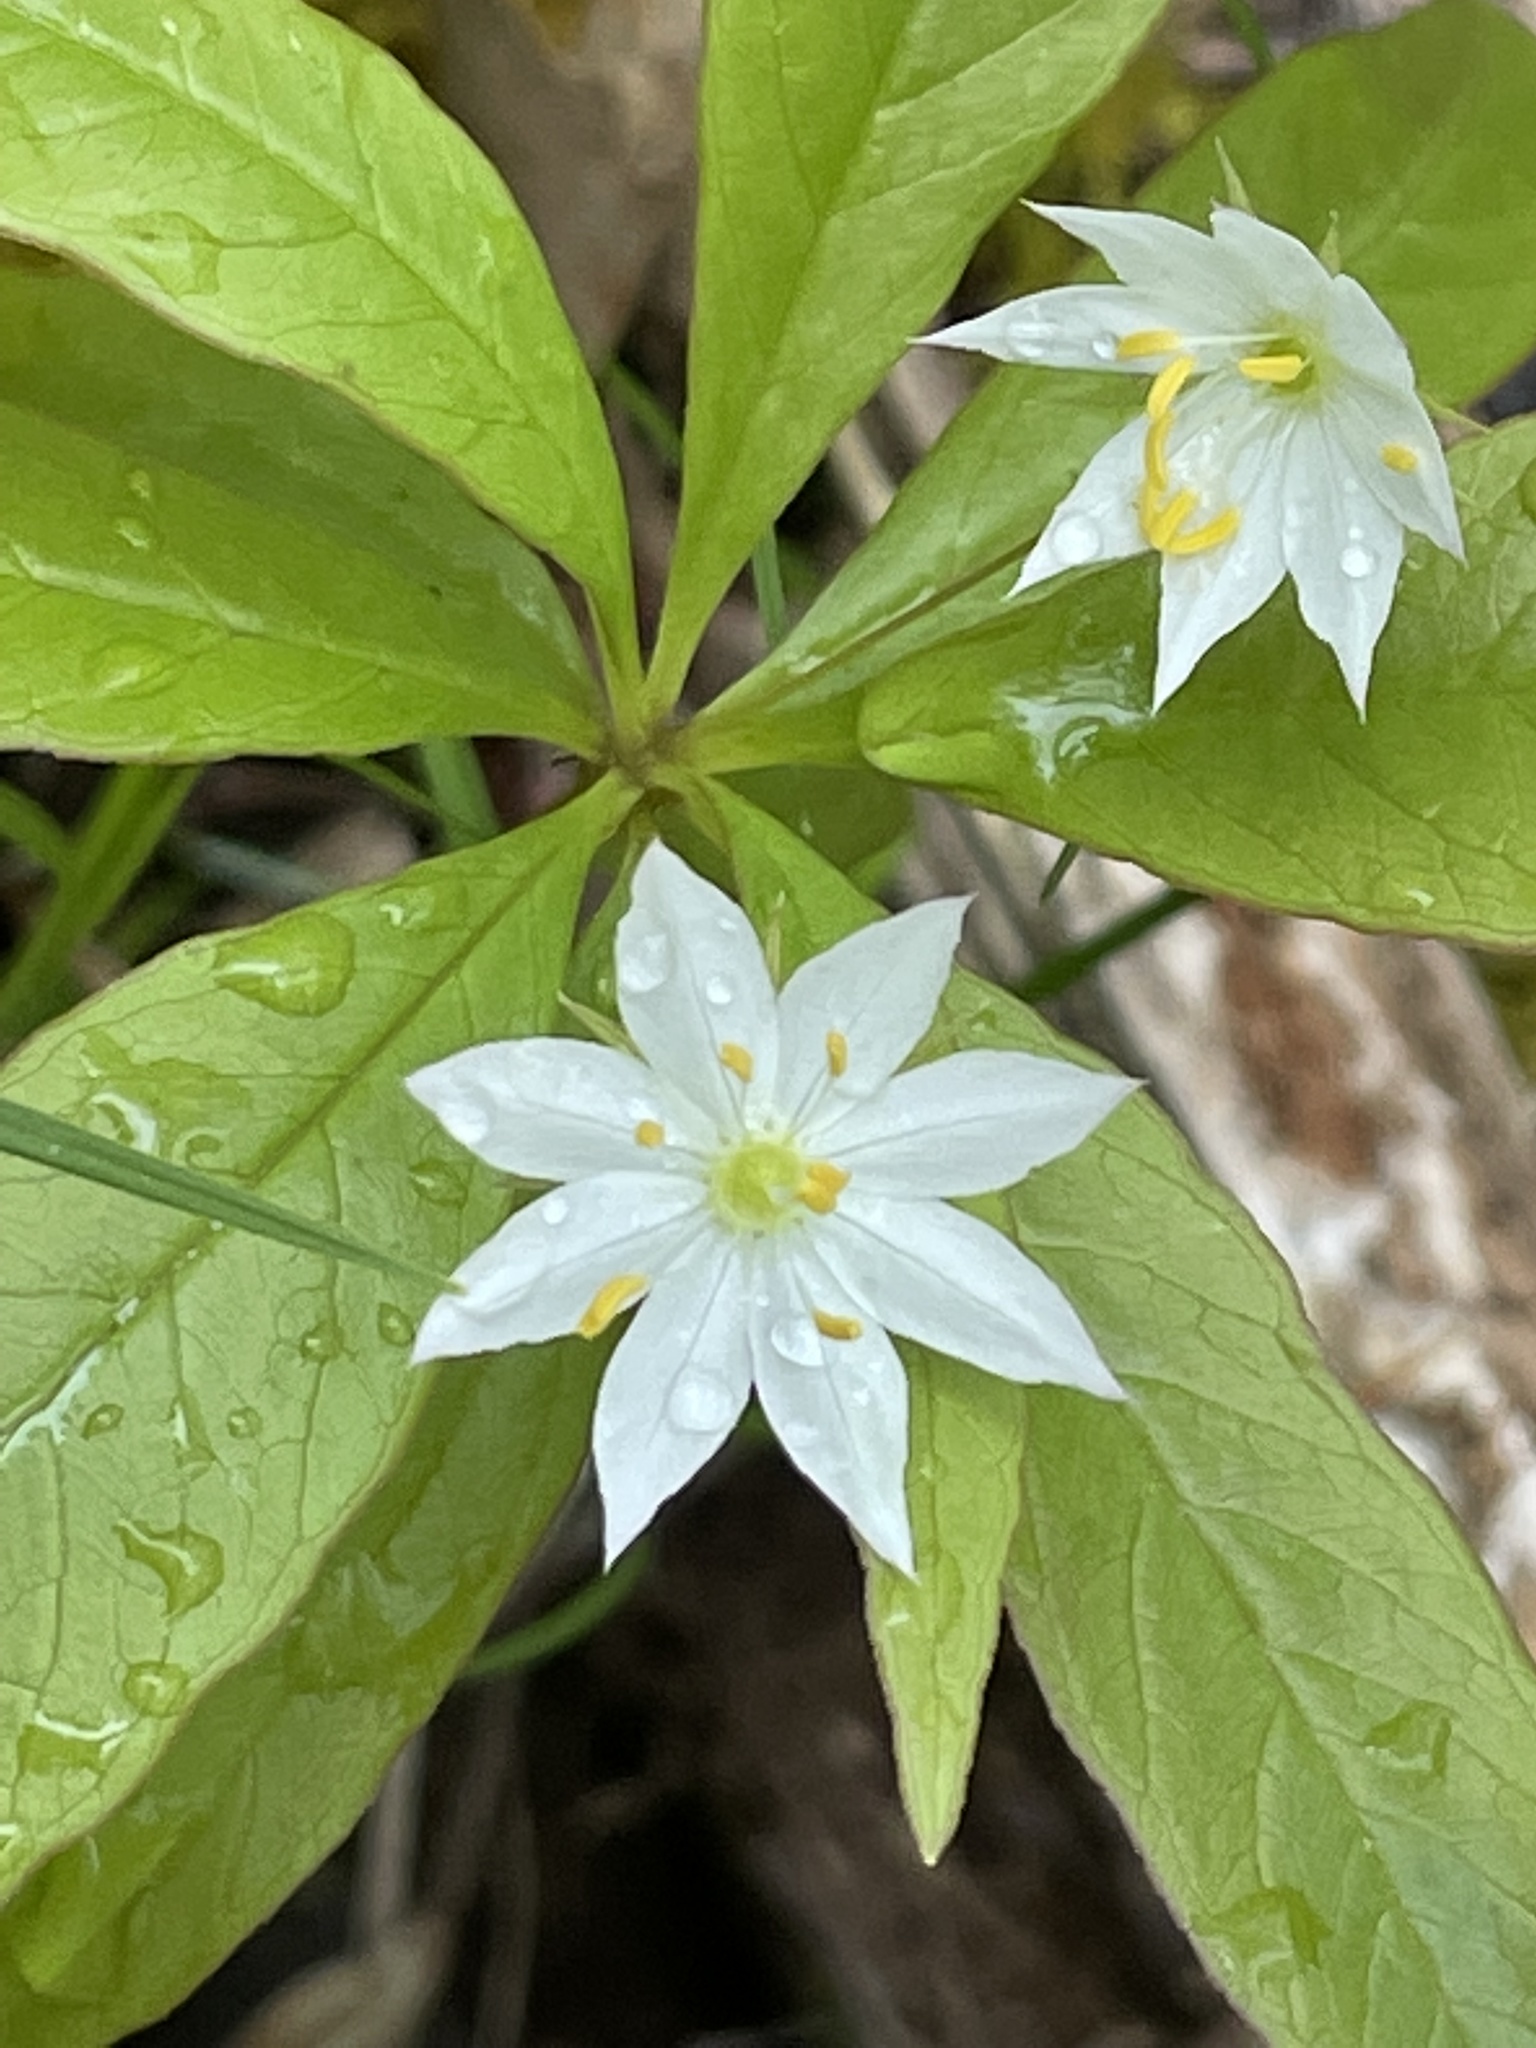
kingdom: Plantae
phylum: Tracheophyta
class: Magnoliopsida
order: Ericales
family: Primulaceae
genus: Lysimachia
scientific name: Lysimachia borealis
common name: American starflower
